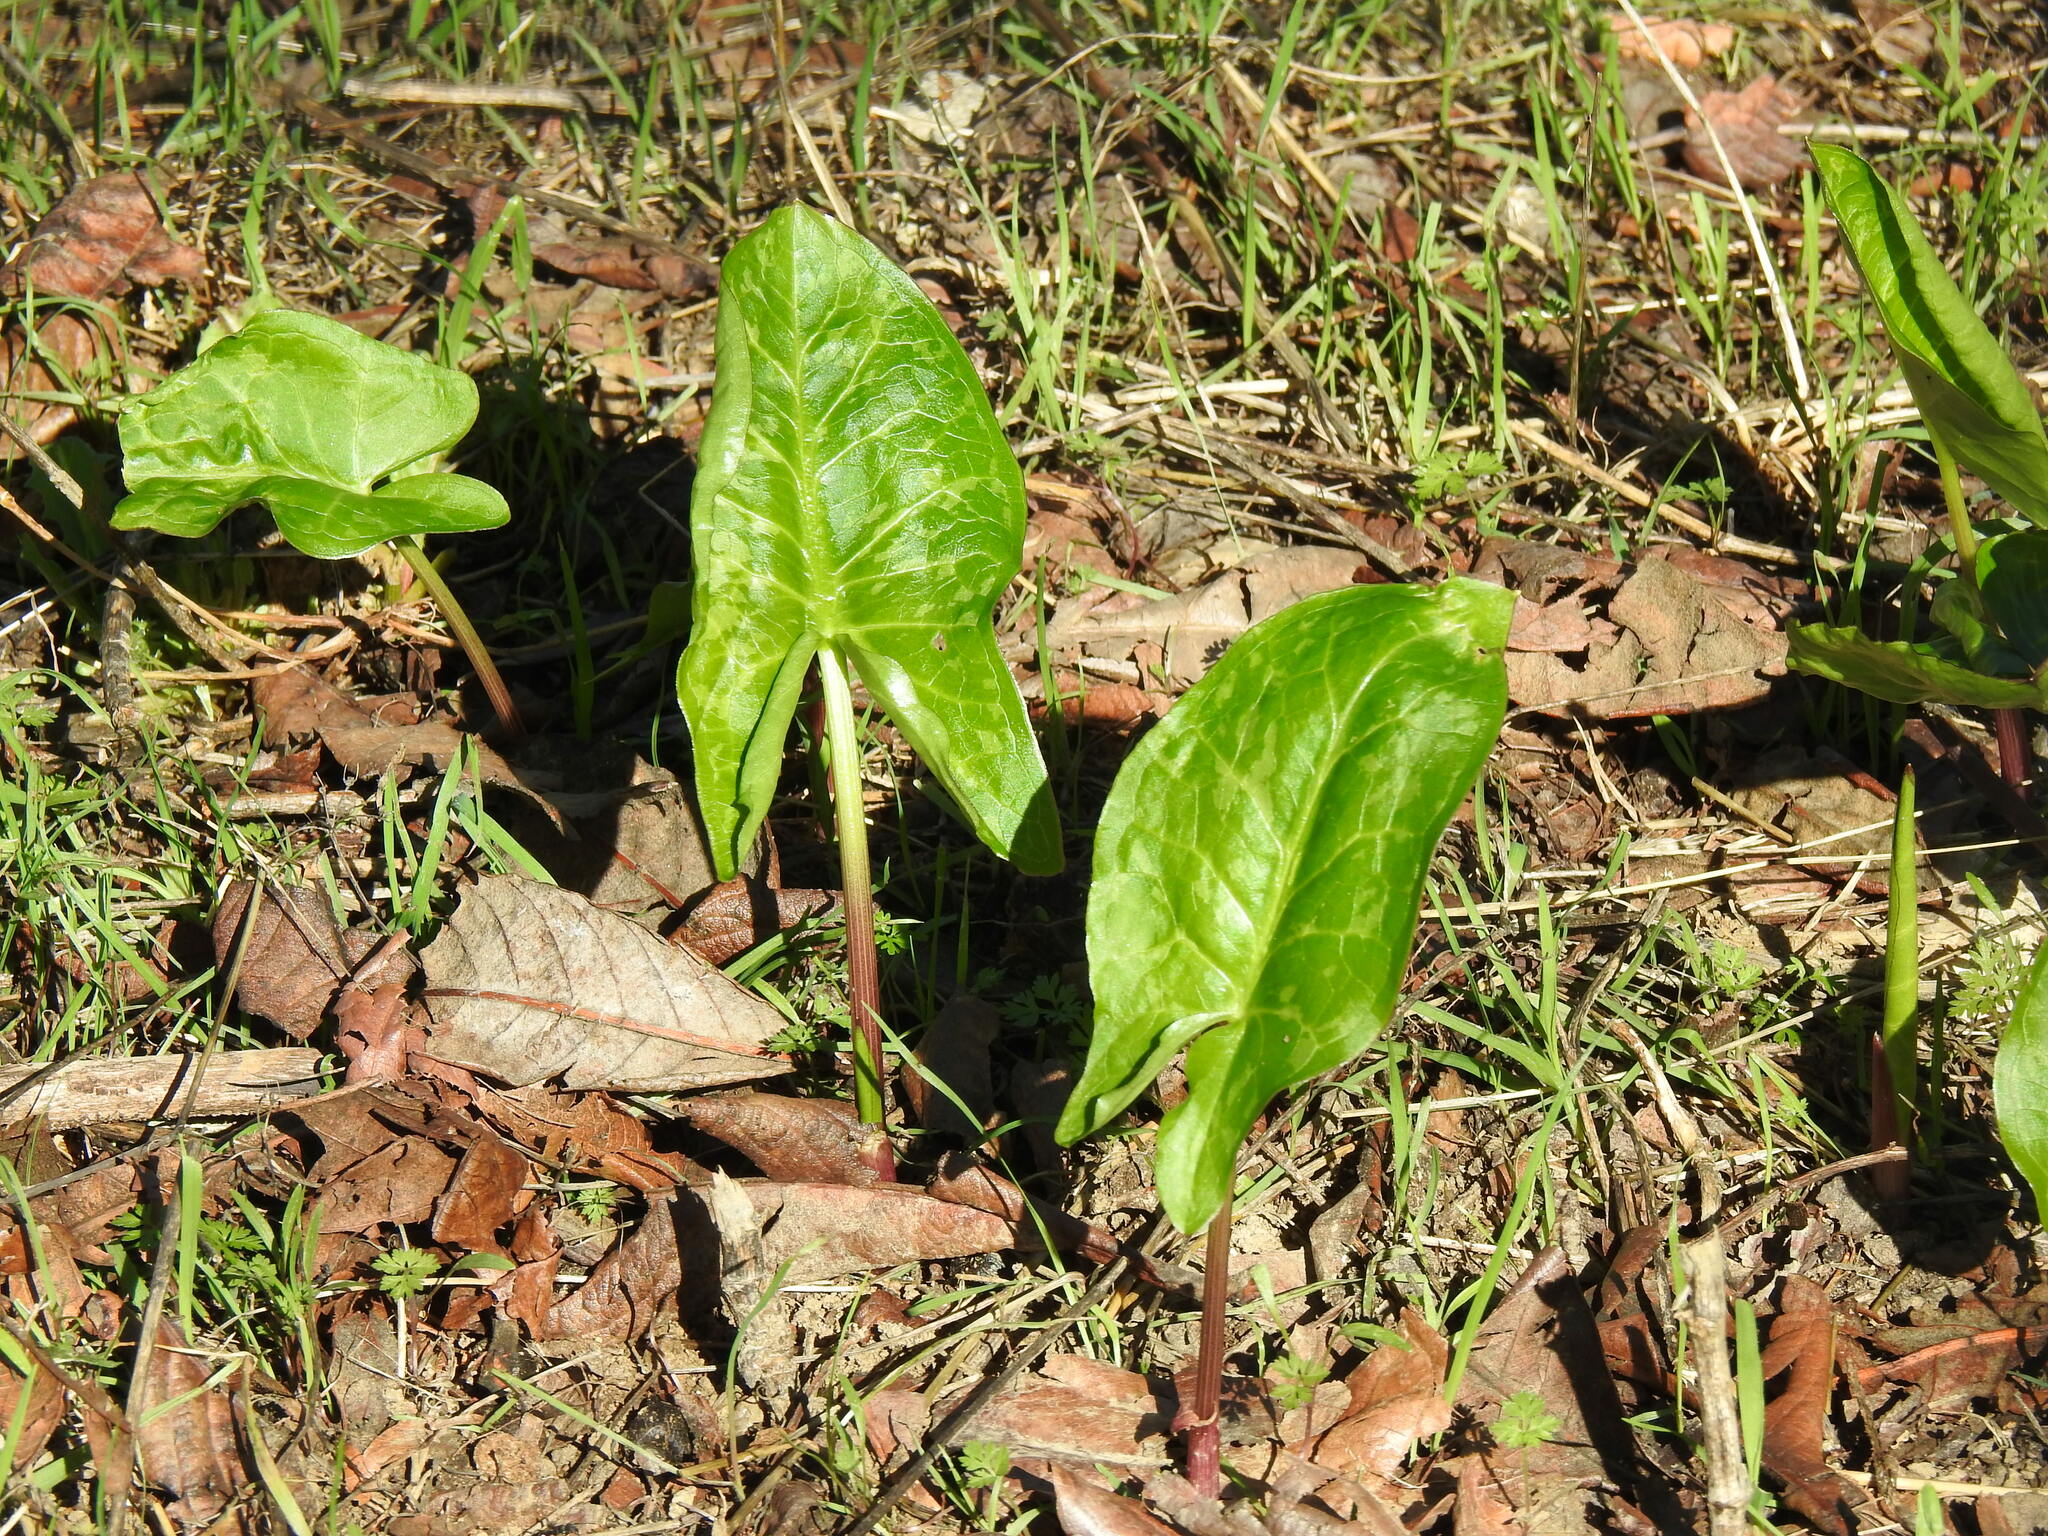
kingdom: Plantae
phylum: Tracheophyta
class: Liliopsida
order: Alismatales
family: Araceae
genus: Arum
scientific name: Arum italicum
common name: Italian lords-and-ladies
